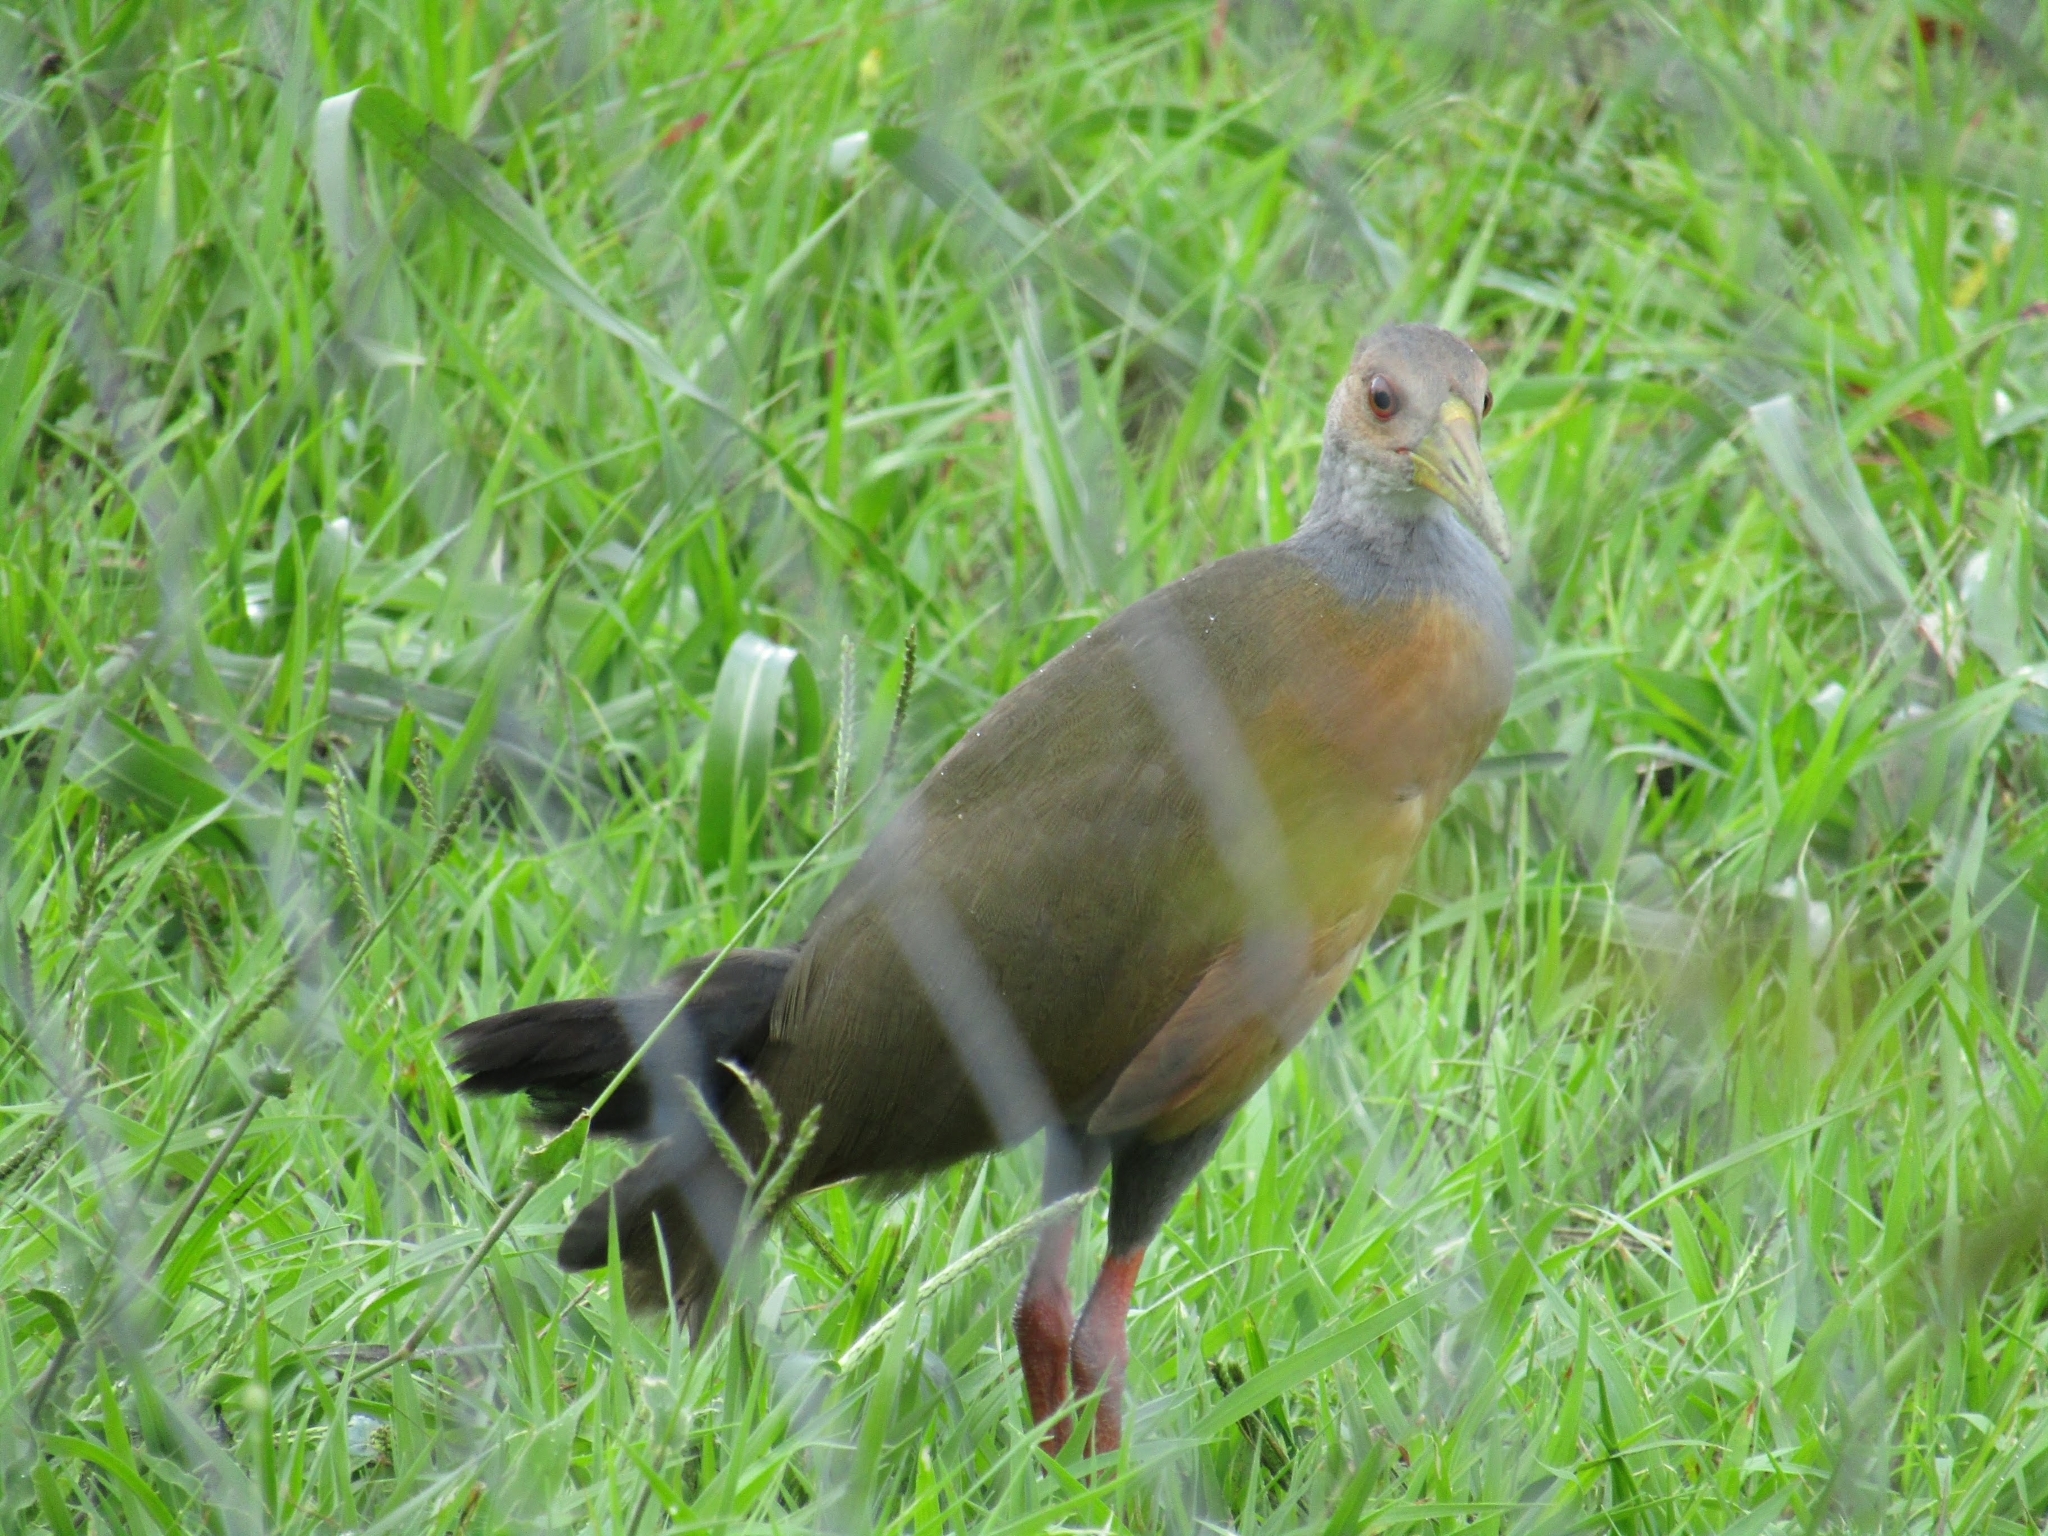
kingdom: Animalia
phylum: Chordata
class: Aves
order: Gruiformes
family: Rallidae
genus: Aramides
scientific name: Aramides cajanea
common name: Gray-necked wood-rail
